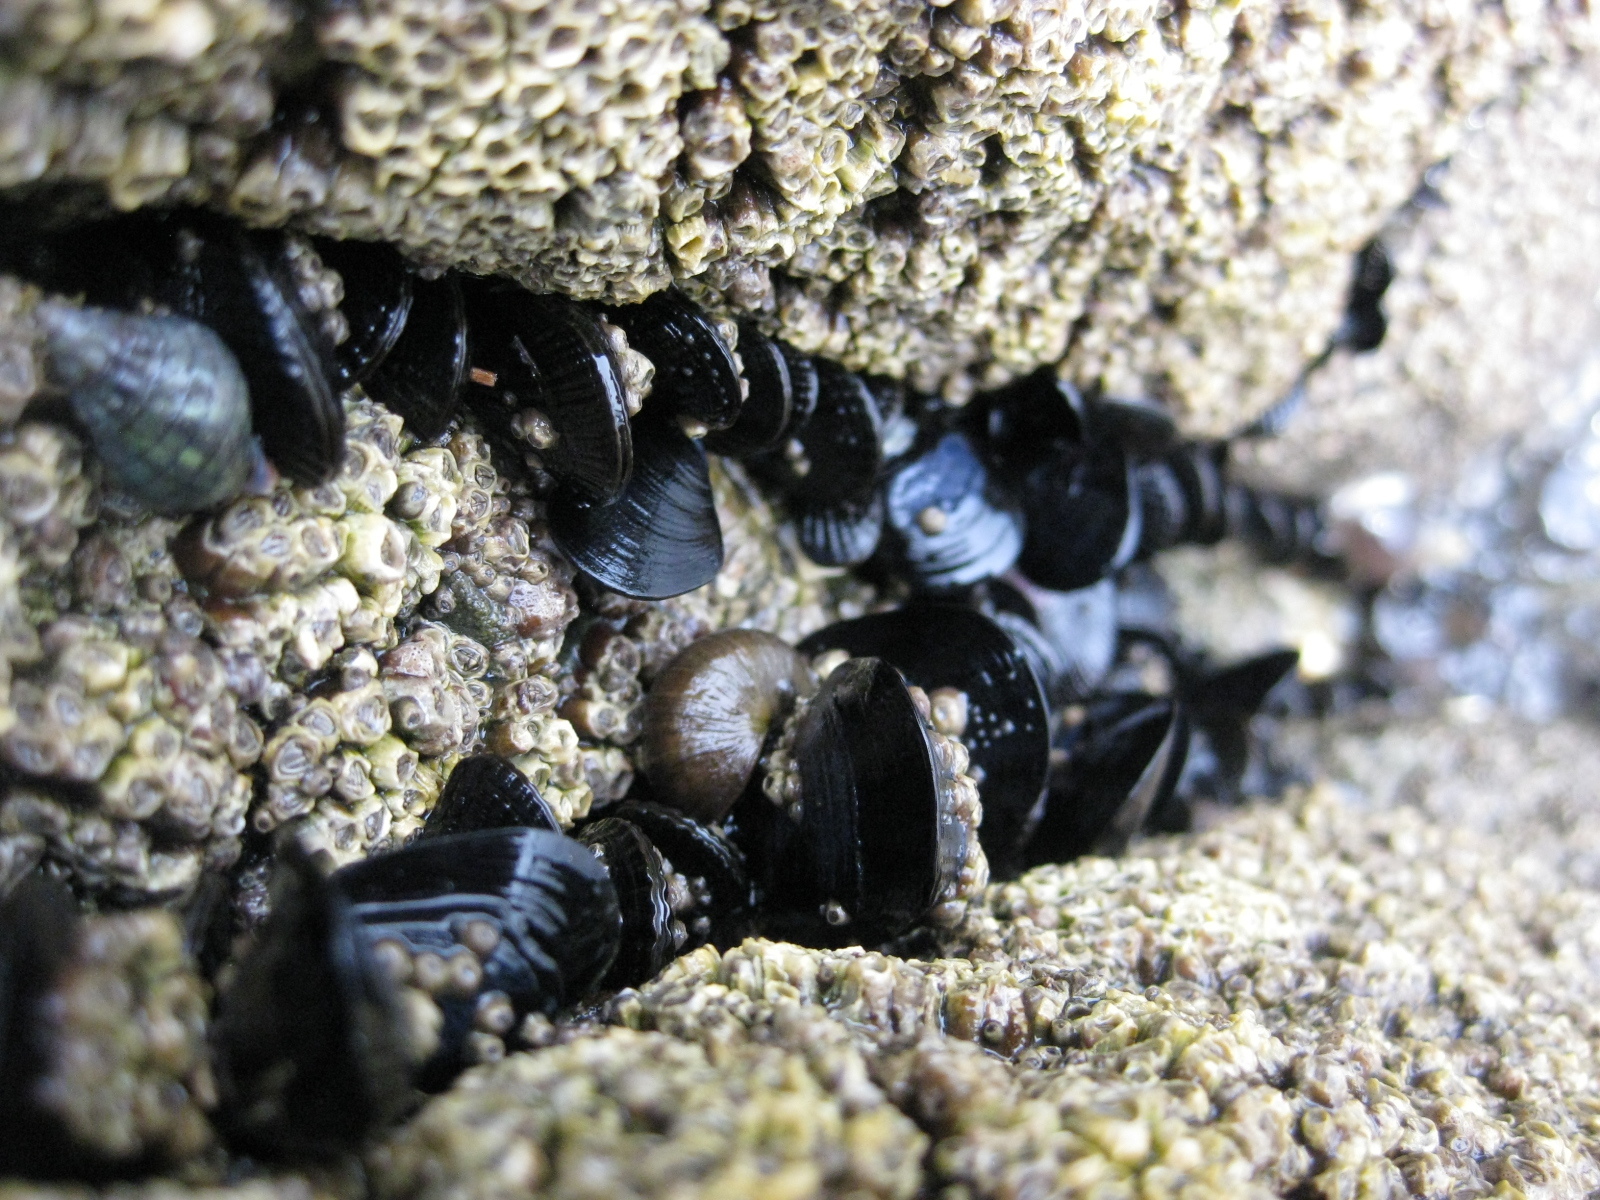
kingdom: Animalia
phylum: Arthropoda
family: Elminiidae
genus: Austrominius
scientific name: Austrominius modestus
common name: Australasian barnacle
